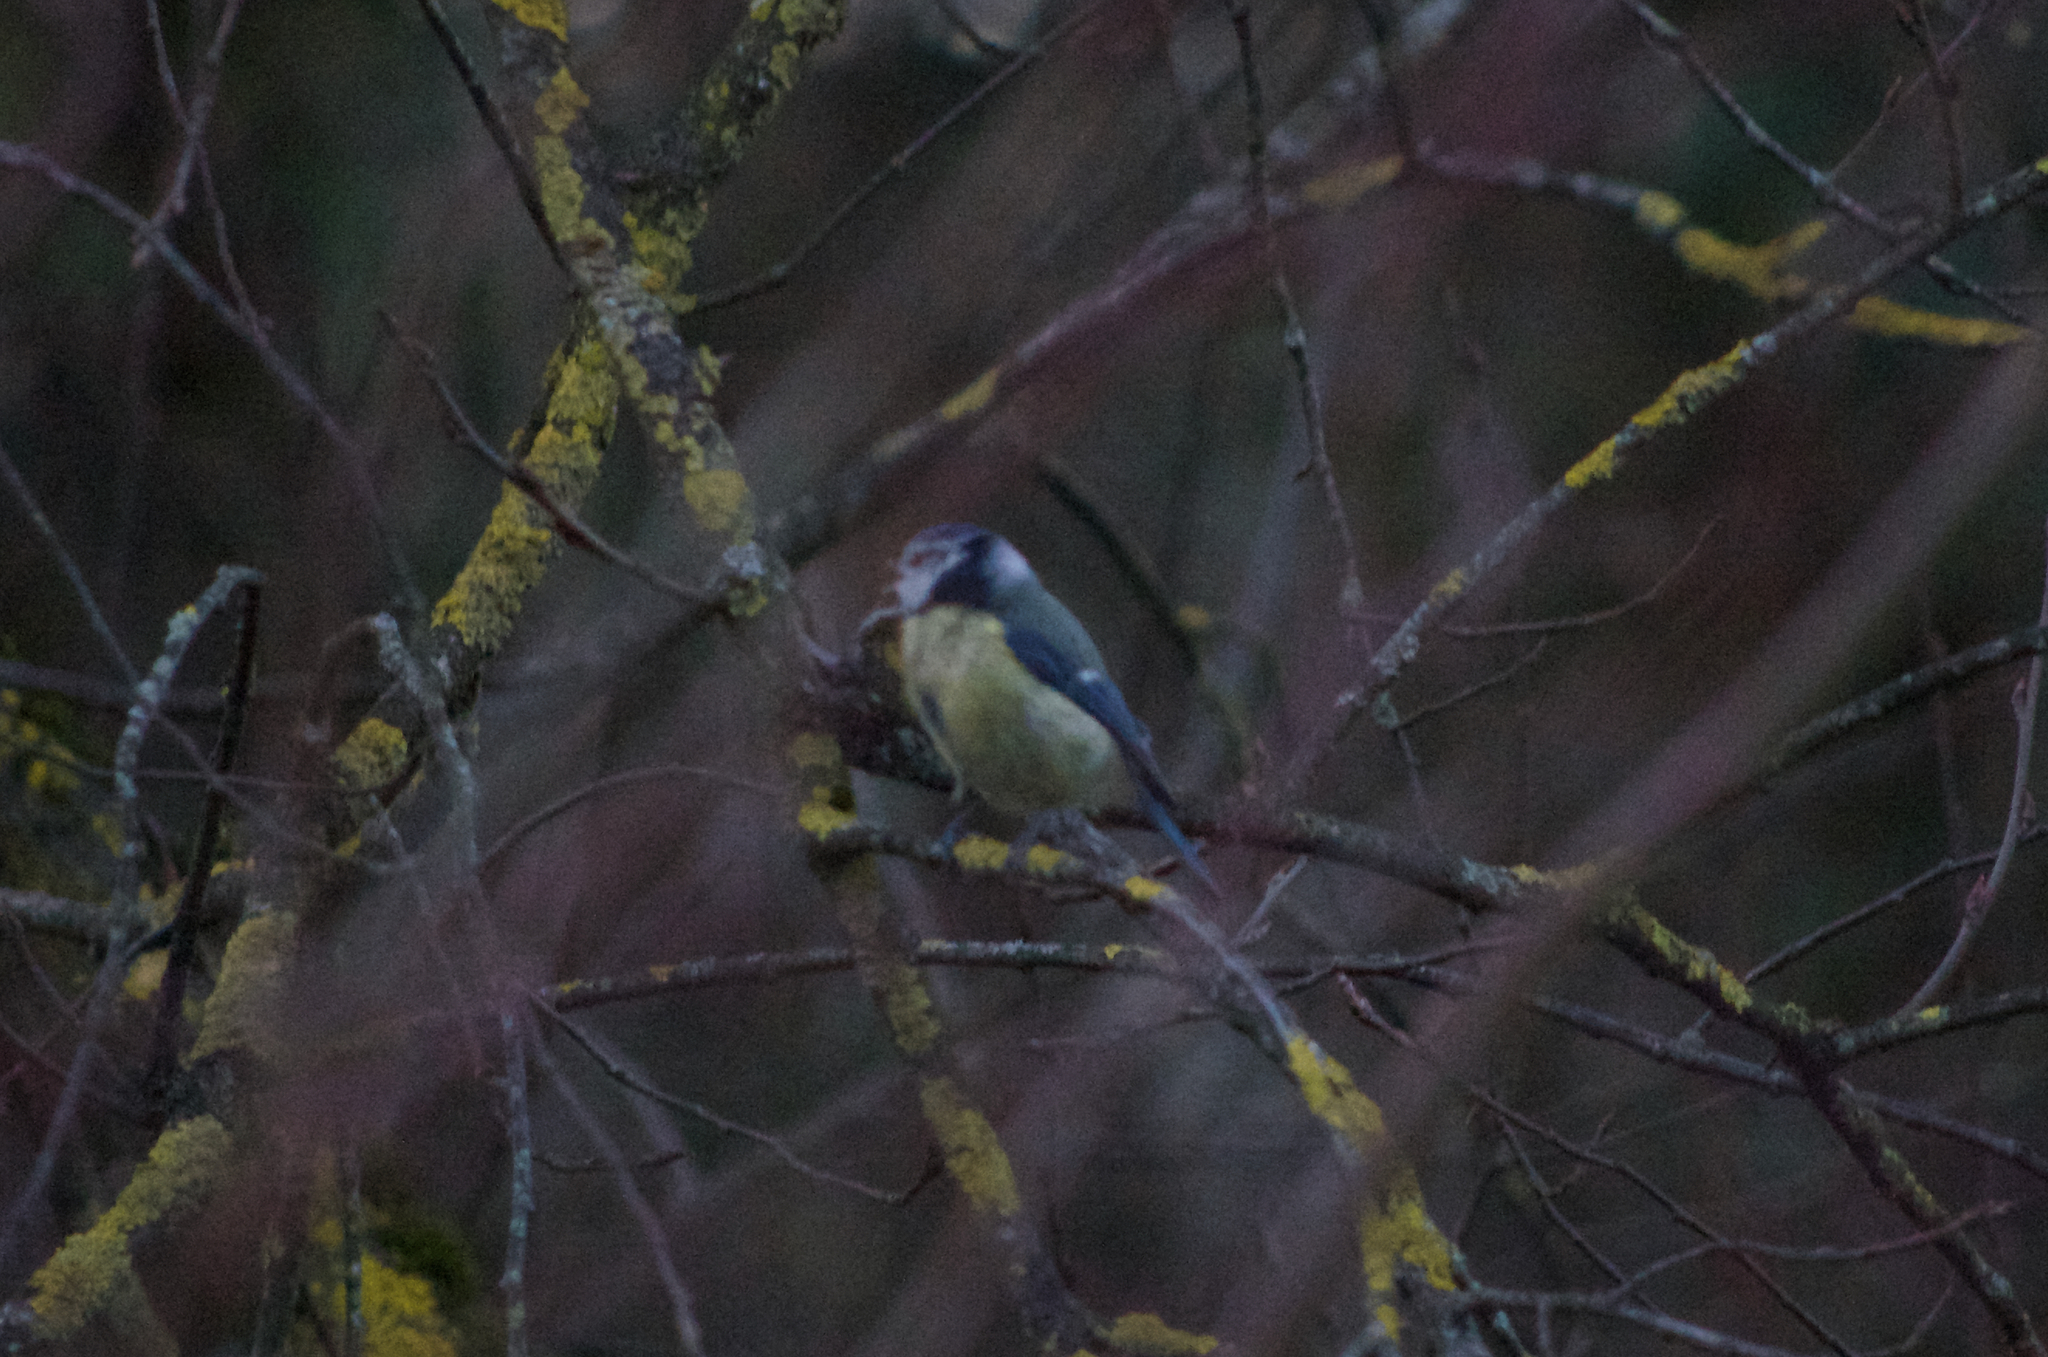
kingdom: Animalia
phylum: Chordata
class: Aves
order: Passeriformes
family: Paridae
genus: Cyanistes
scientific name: Cyanistes caeruleus
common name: Eurasian blue tit
